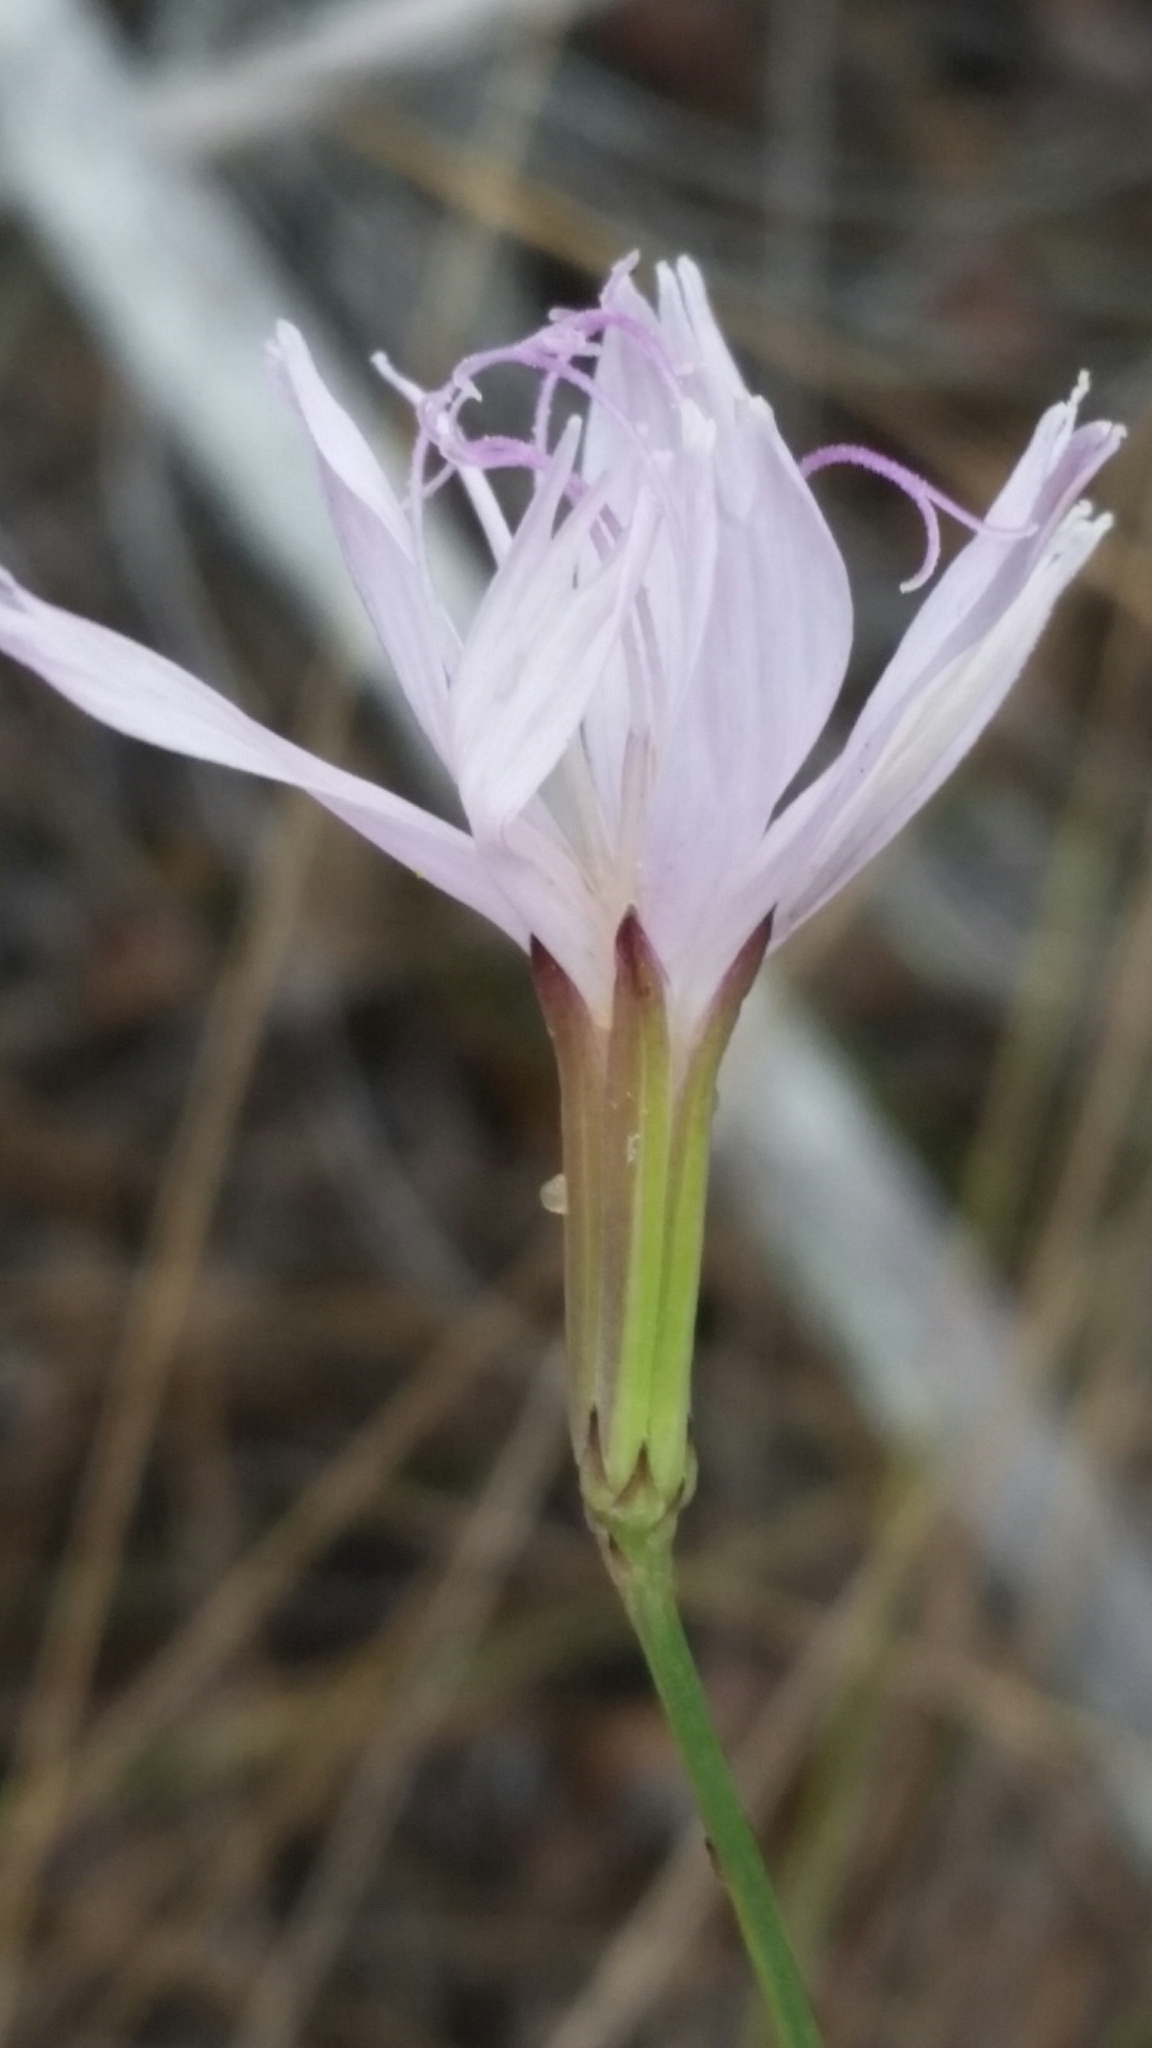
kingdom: Plantae
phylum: Tracheophyta
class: Magnoliopsida
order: Asterales
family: Asteraceae
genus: Lygodesmia
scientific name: Lygodesmia aphylla
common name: Rose-rush
